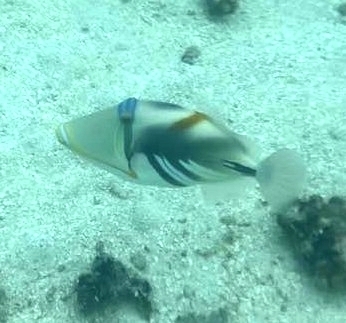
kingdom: Animalia
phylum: Chordata
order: Tetraodontiformes
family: Balistidae
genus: Rhinecanthus
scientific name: Rhinecanthus aculeatus
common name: White-banded triggerfish
